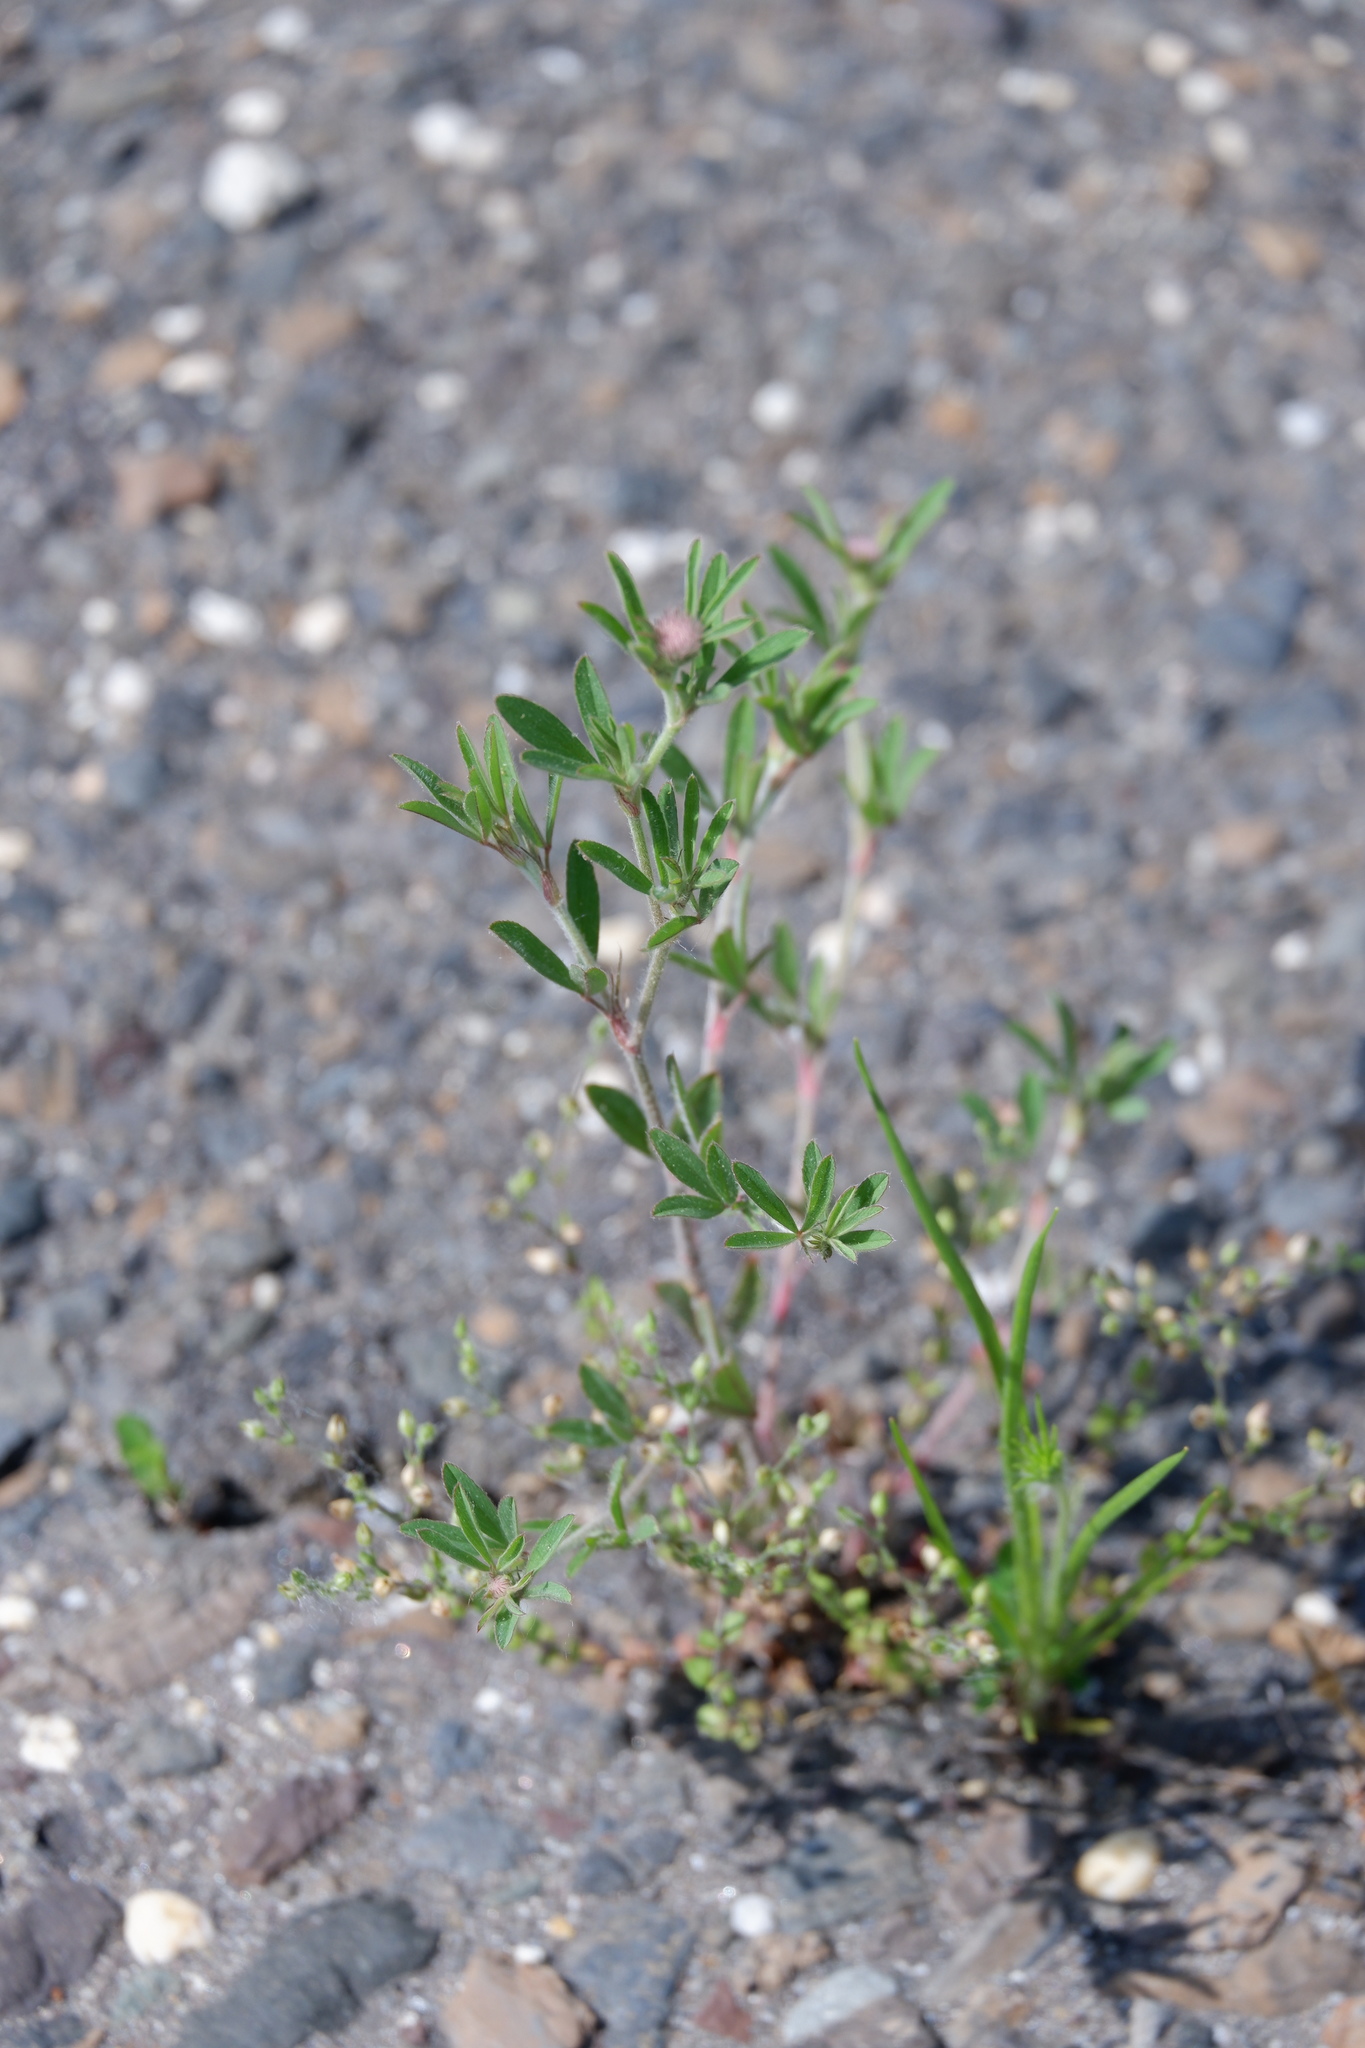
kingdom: Plantae
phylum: Tracheophyta
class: Magnoliopsida
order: Fabales
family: Fabaceae
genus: Trifolium
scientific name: Trifolium arvense
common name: Hare's-foot clover
